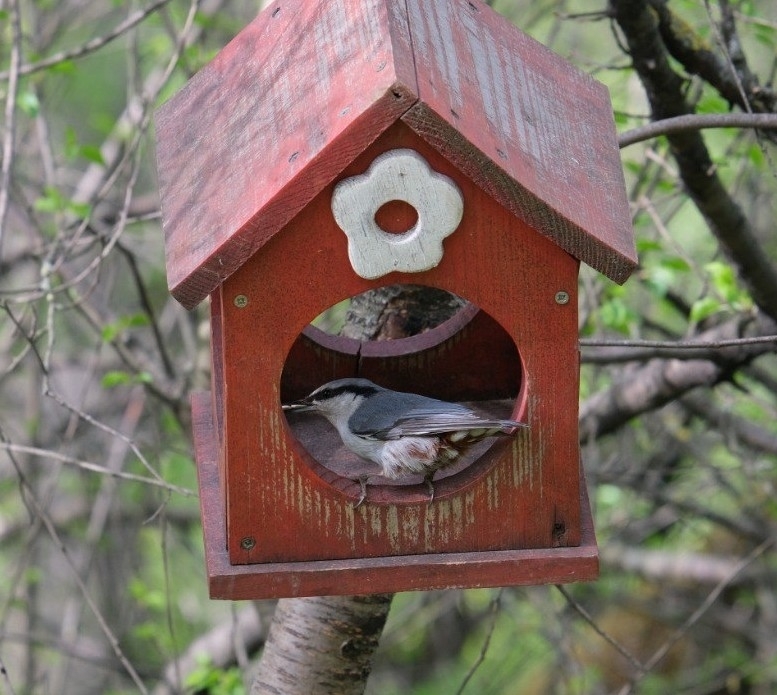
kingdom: Animalia
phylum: Chordata
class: Aves
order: Passeriformes
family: Sittidae
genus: Sitta
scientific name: Sitta europaea
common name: Eurasian nuthatch
